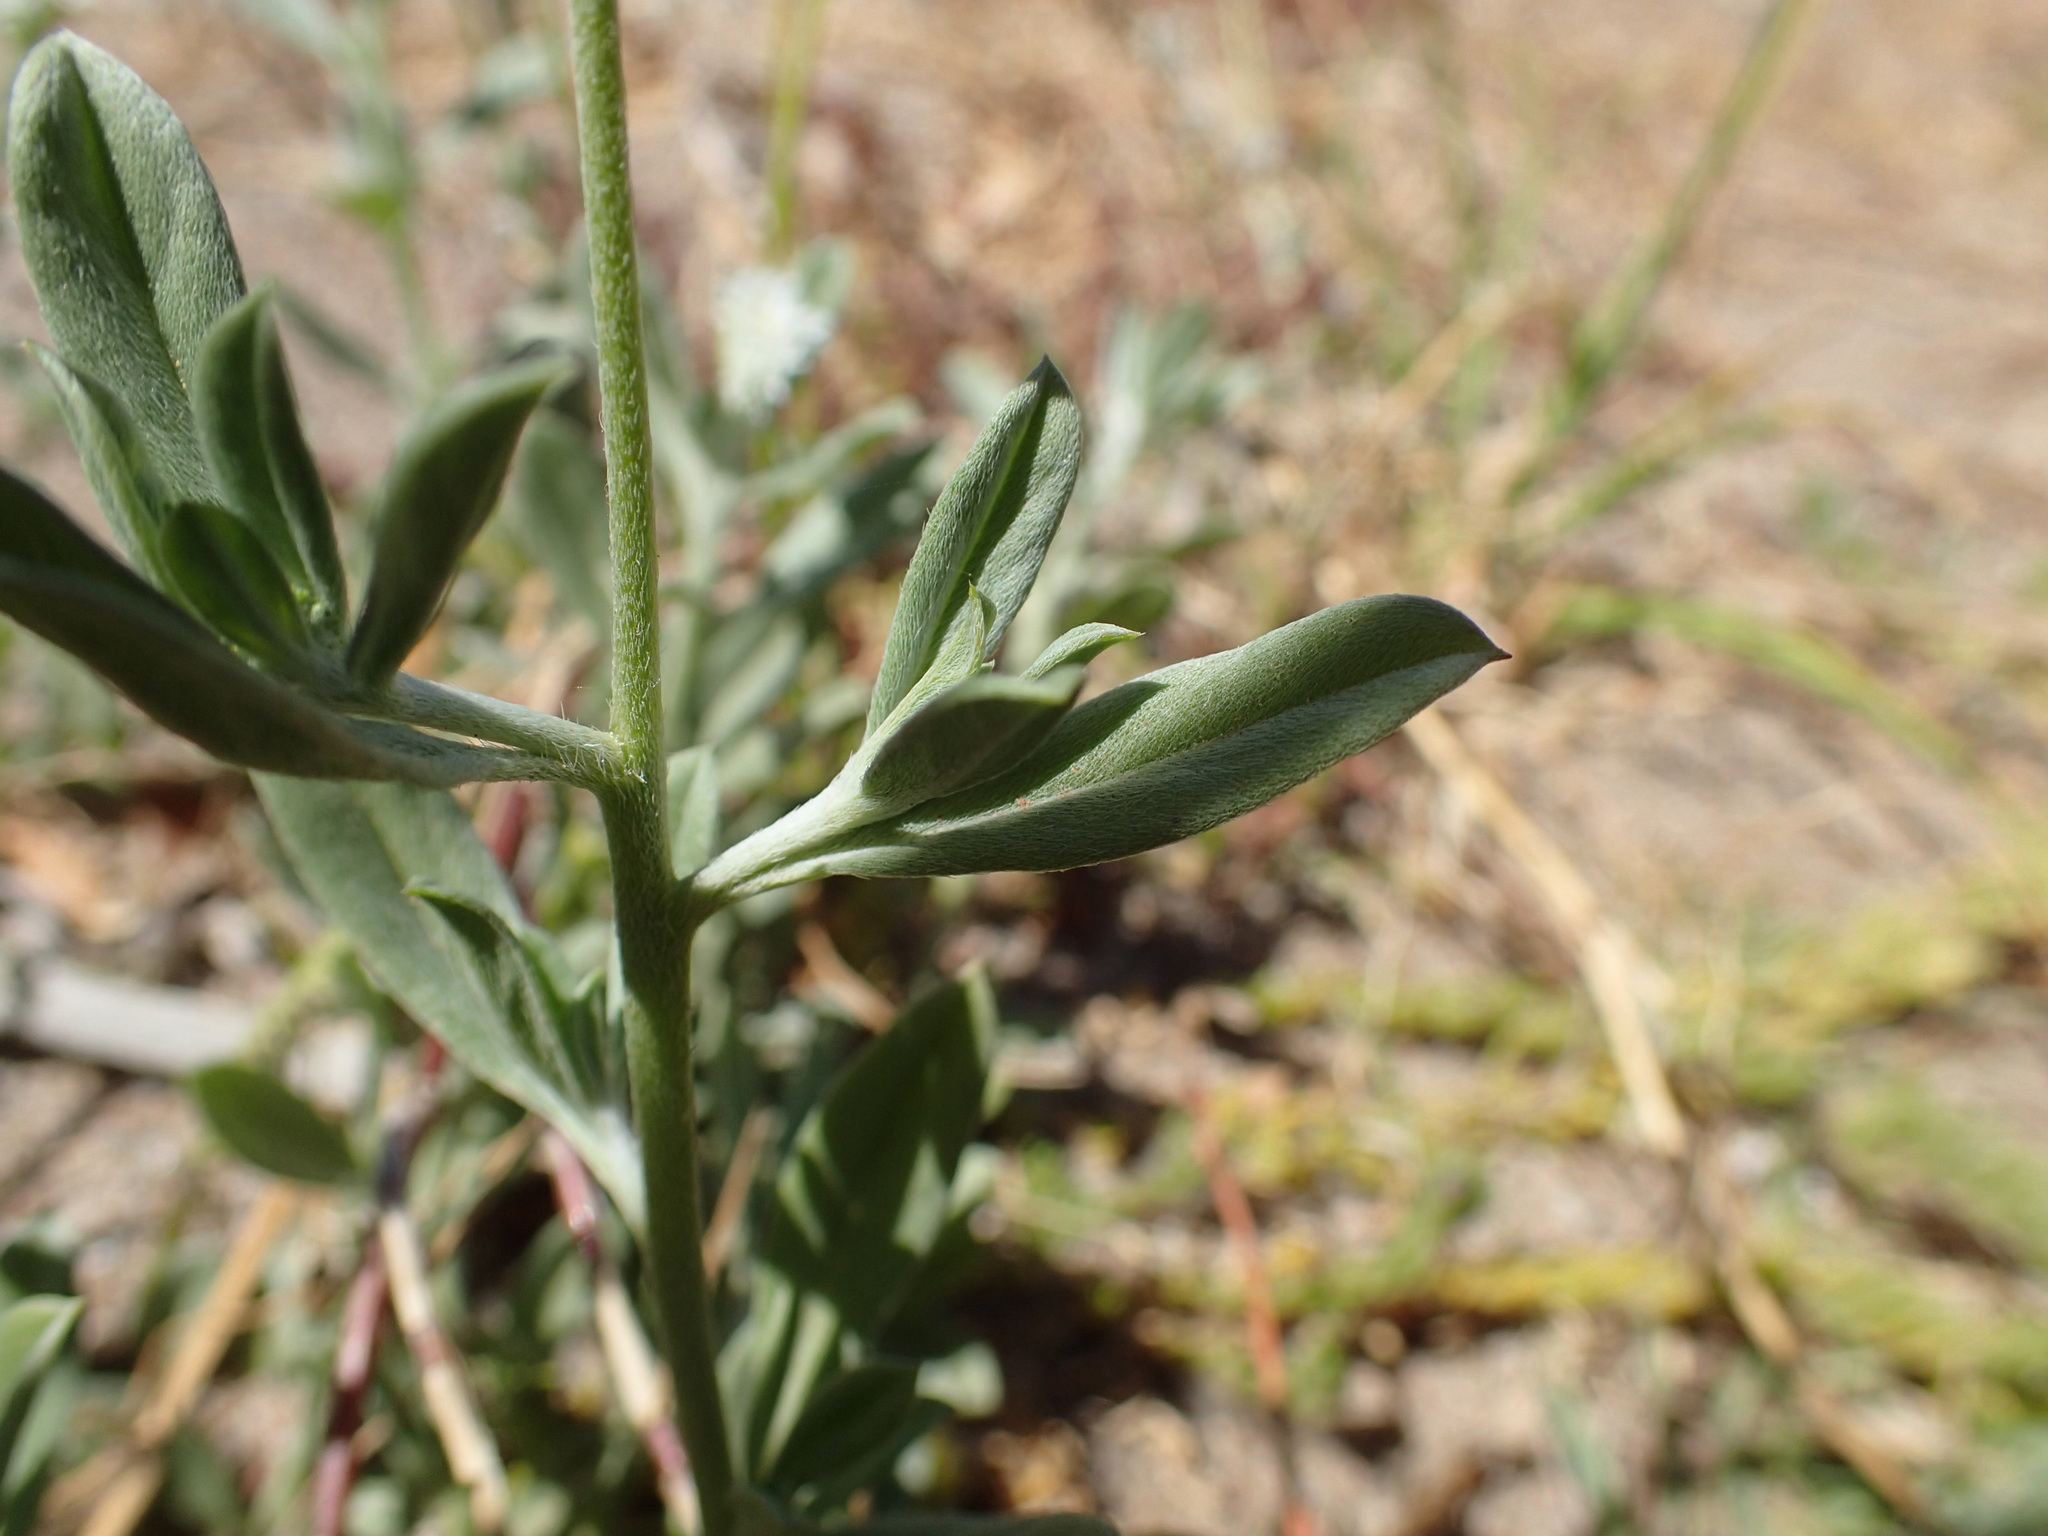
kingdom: Plantae
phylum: Tracheophyta
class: Magnoliopsida
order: Boraginales
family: Heliotropiaceae
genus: Euploca
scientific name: Euploca ovalifolia
